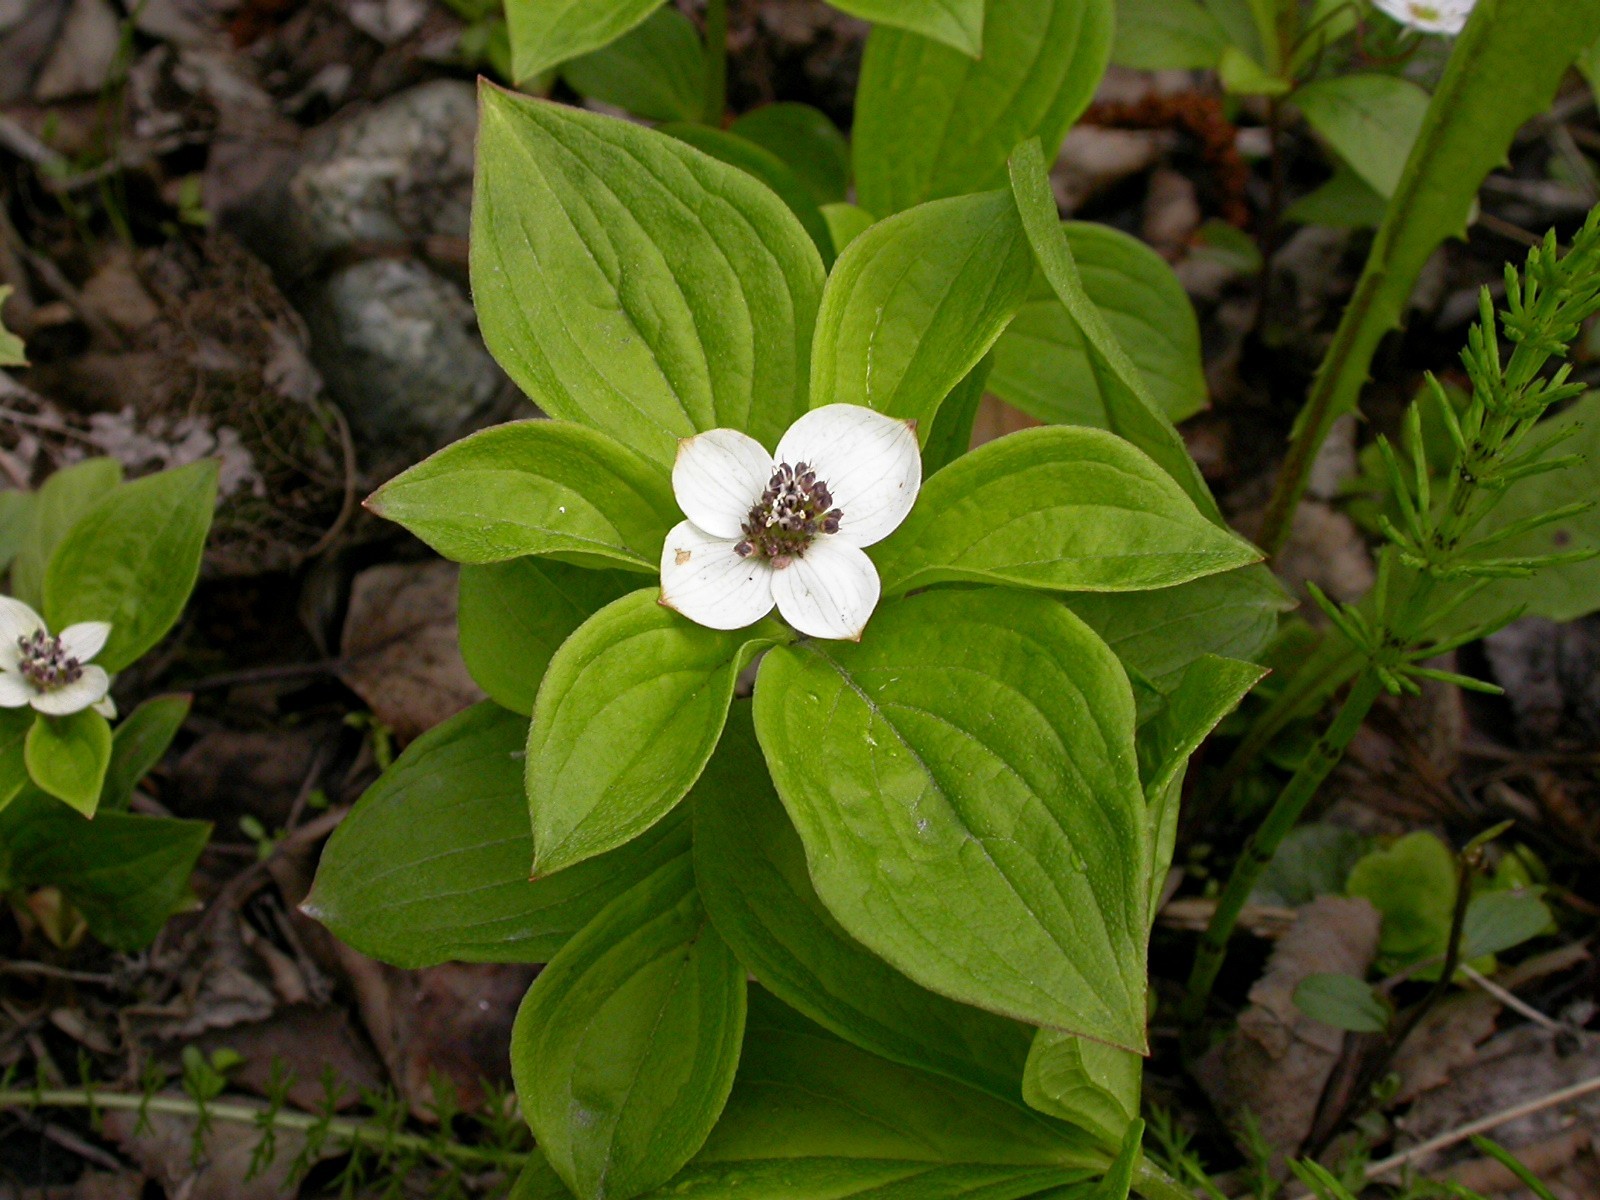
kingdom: Plantae
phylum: Tracheophyta
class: Magnoliopsida
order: Cornales
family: Cornaceae
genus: Cornus
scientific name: Cornus unalaschkensis
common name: Alaska bunchberry
